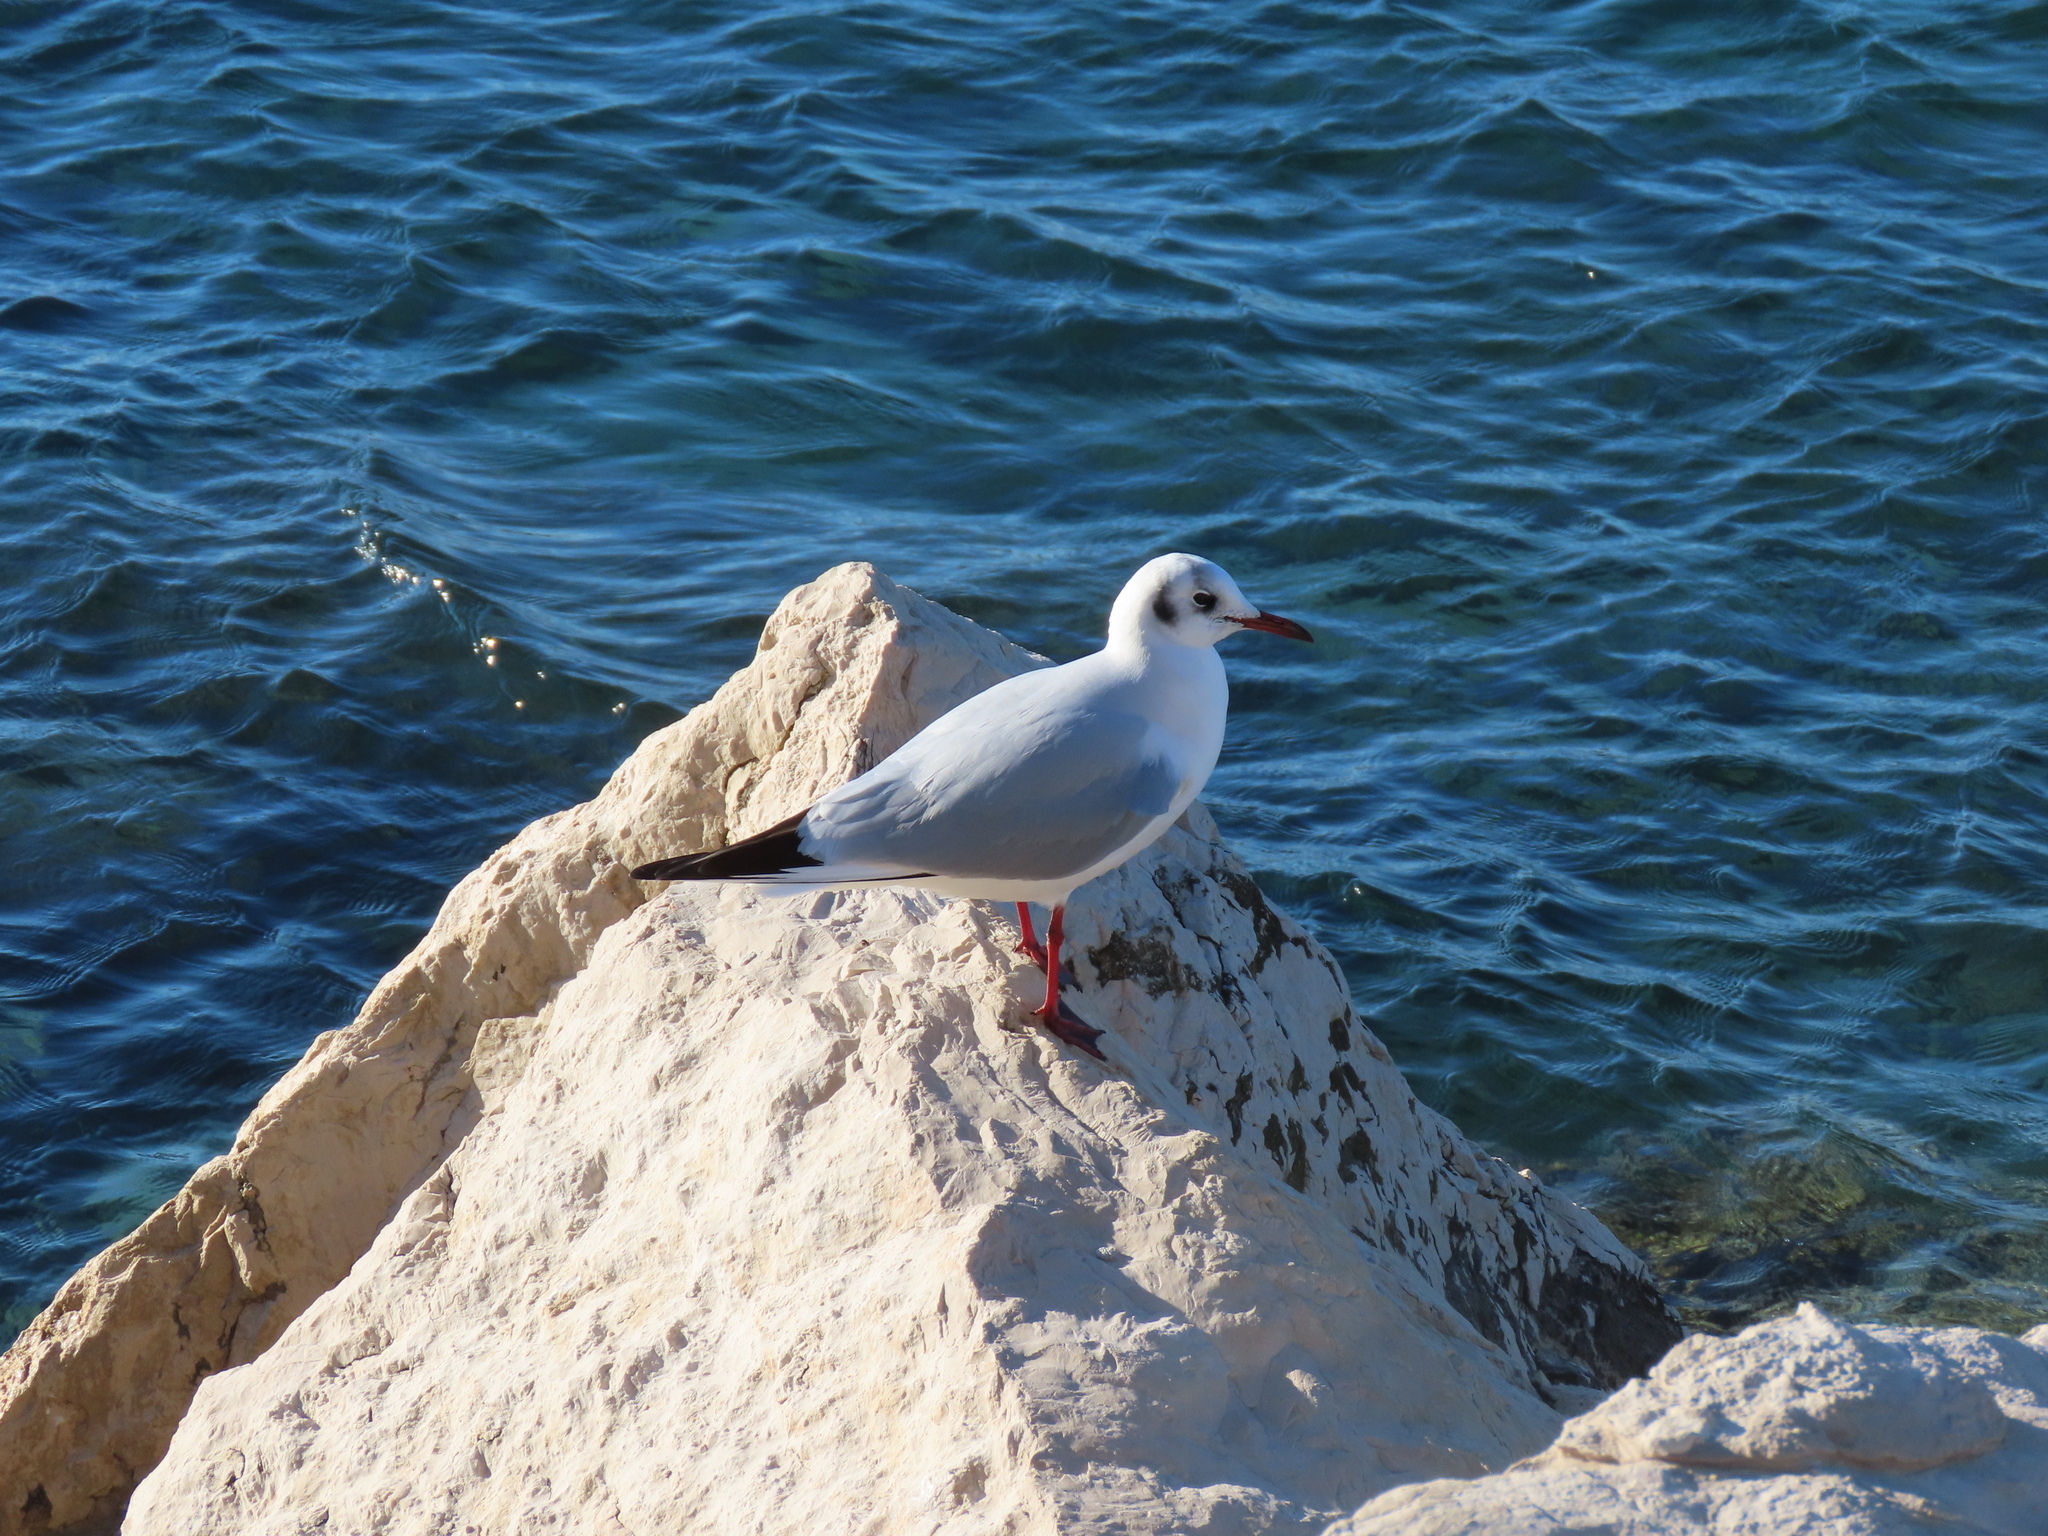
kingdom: Animalia
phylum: Chordata
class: Aves
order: Charadriiformes
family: Laridae
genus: Chroicocephalus
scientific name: Chroicocephalus ridibundus
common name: Black-headed gull
